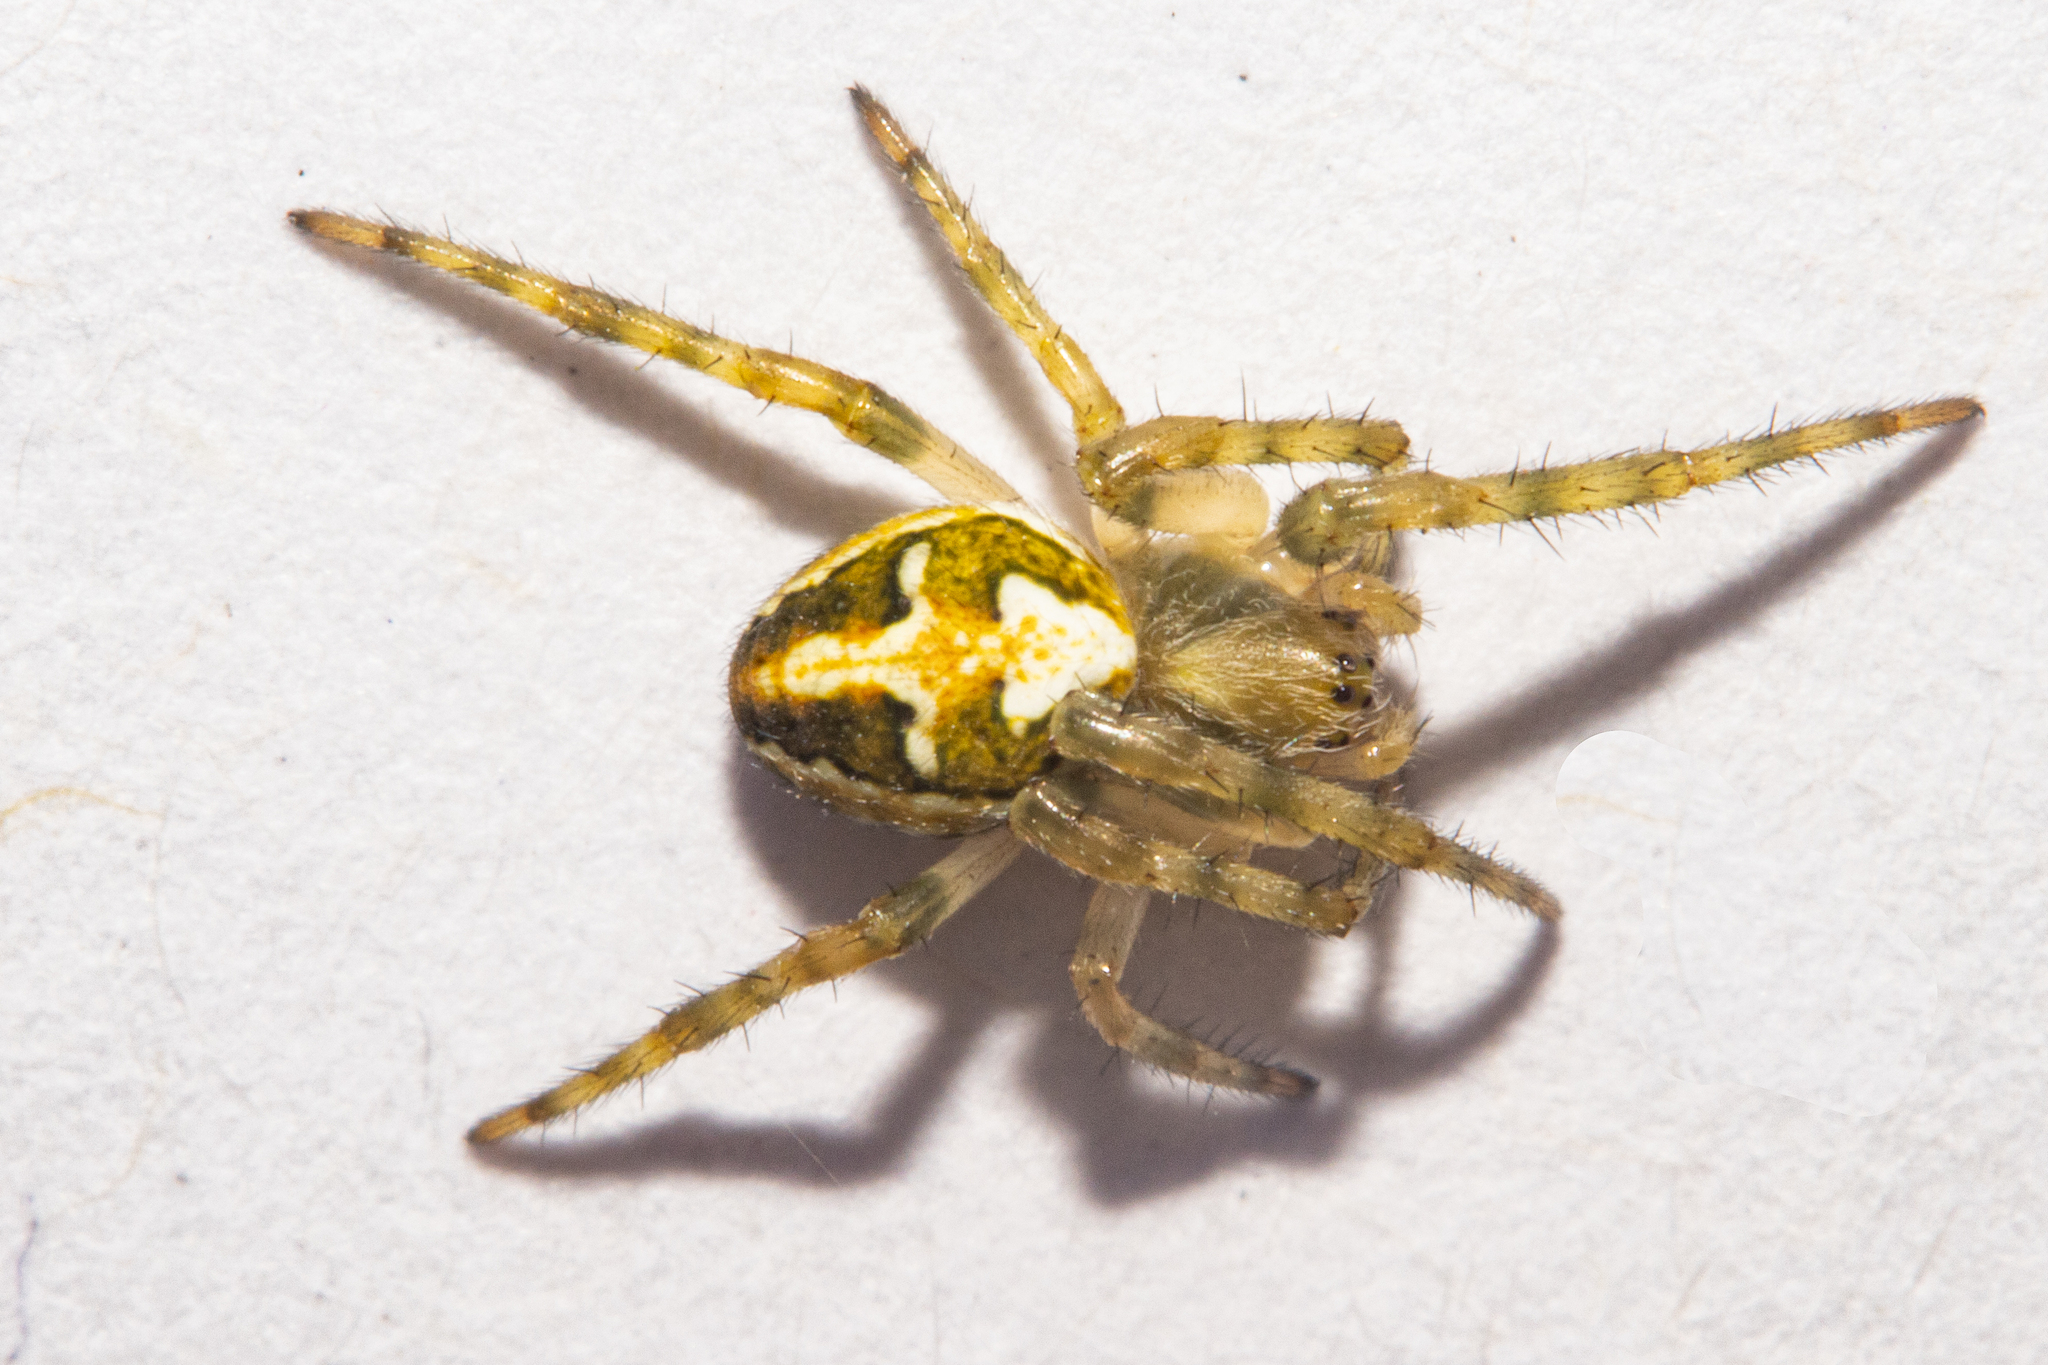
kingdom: Animalia
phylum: Arthropoda
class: Arachnida
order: Araneae
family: Araneidae
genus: Colaranea
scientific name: Colaranea verutum
